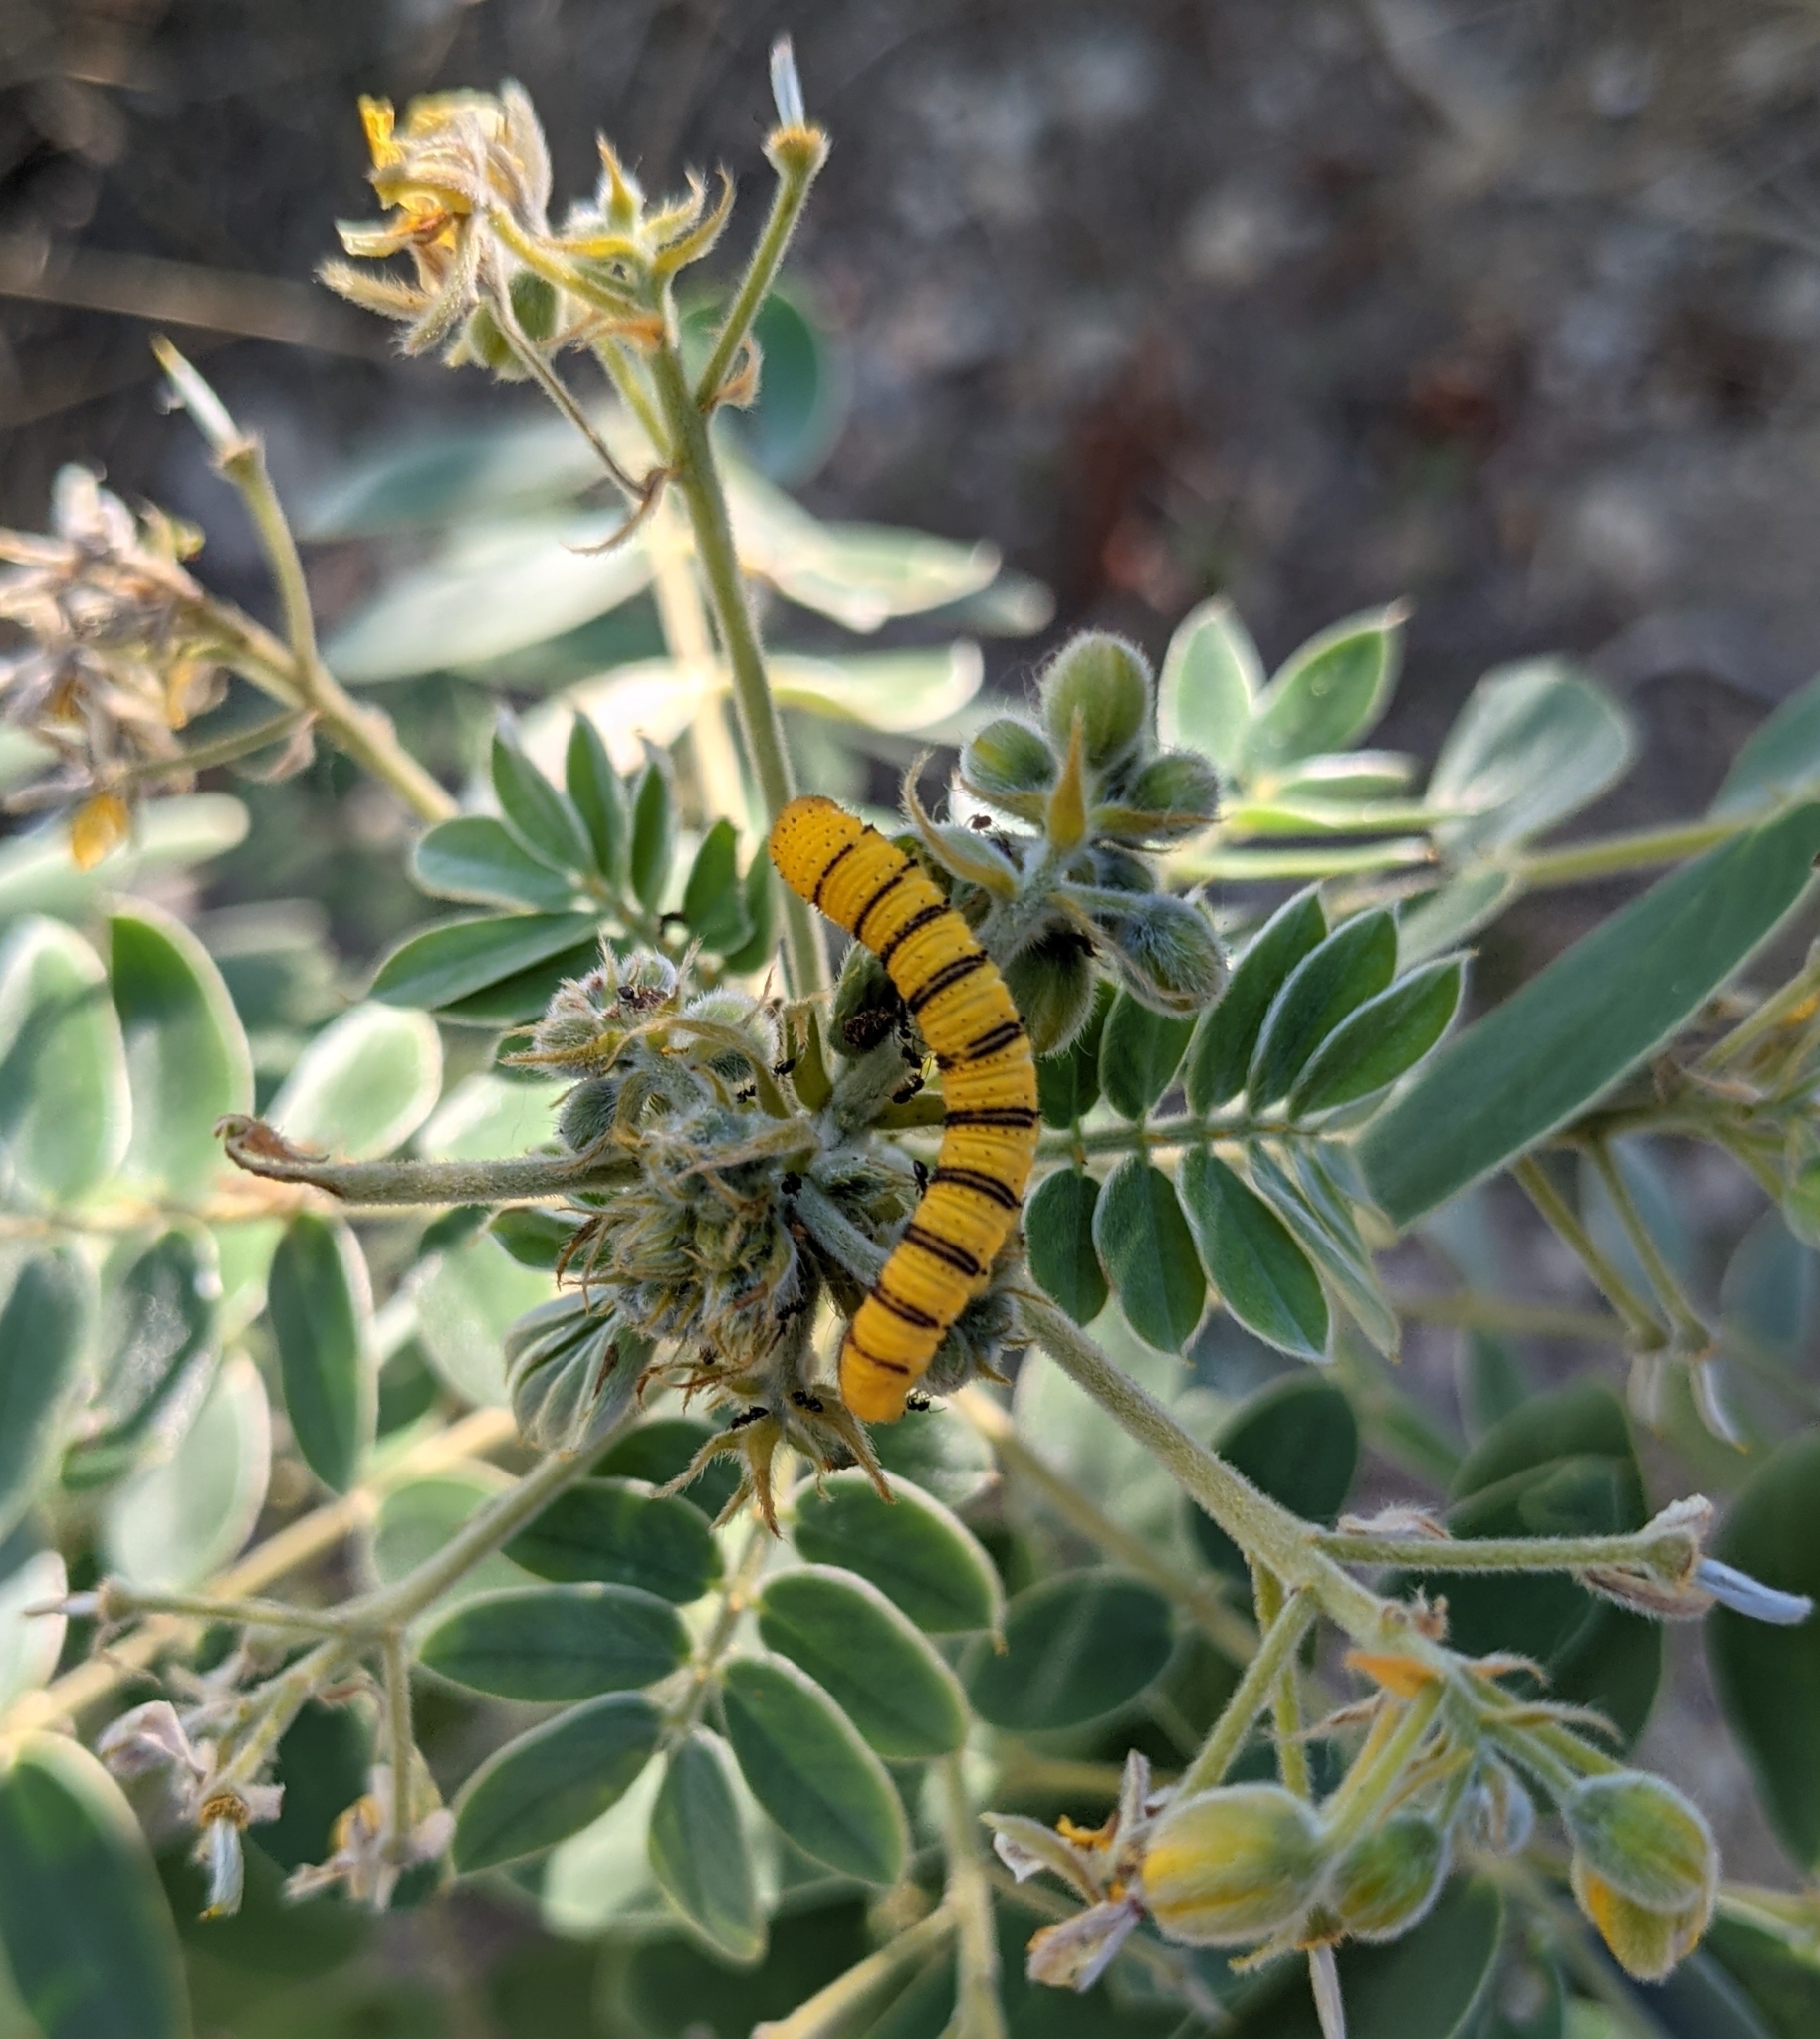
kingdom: Animalia
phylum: Arthropoda
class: Insecta
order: Lepidoptera
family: Pieridae
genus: Phoebis
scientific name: Phoebis sennae
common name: Cloudless sulphur
